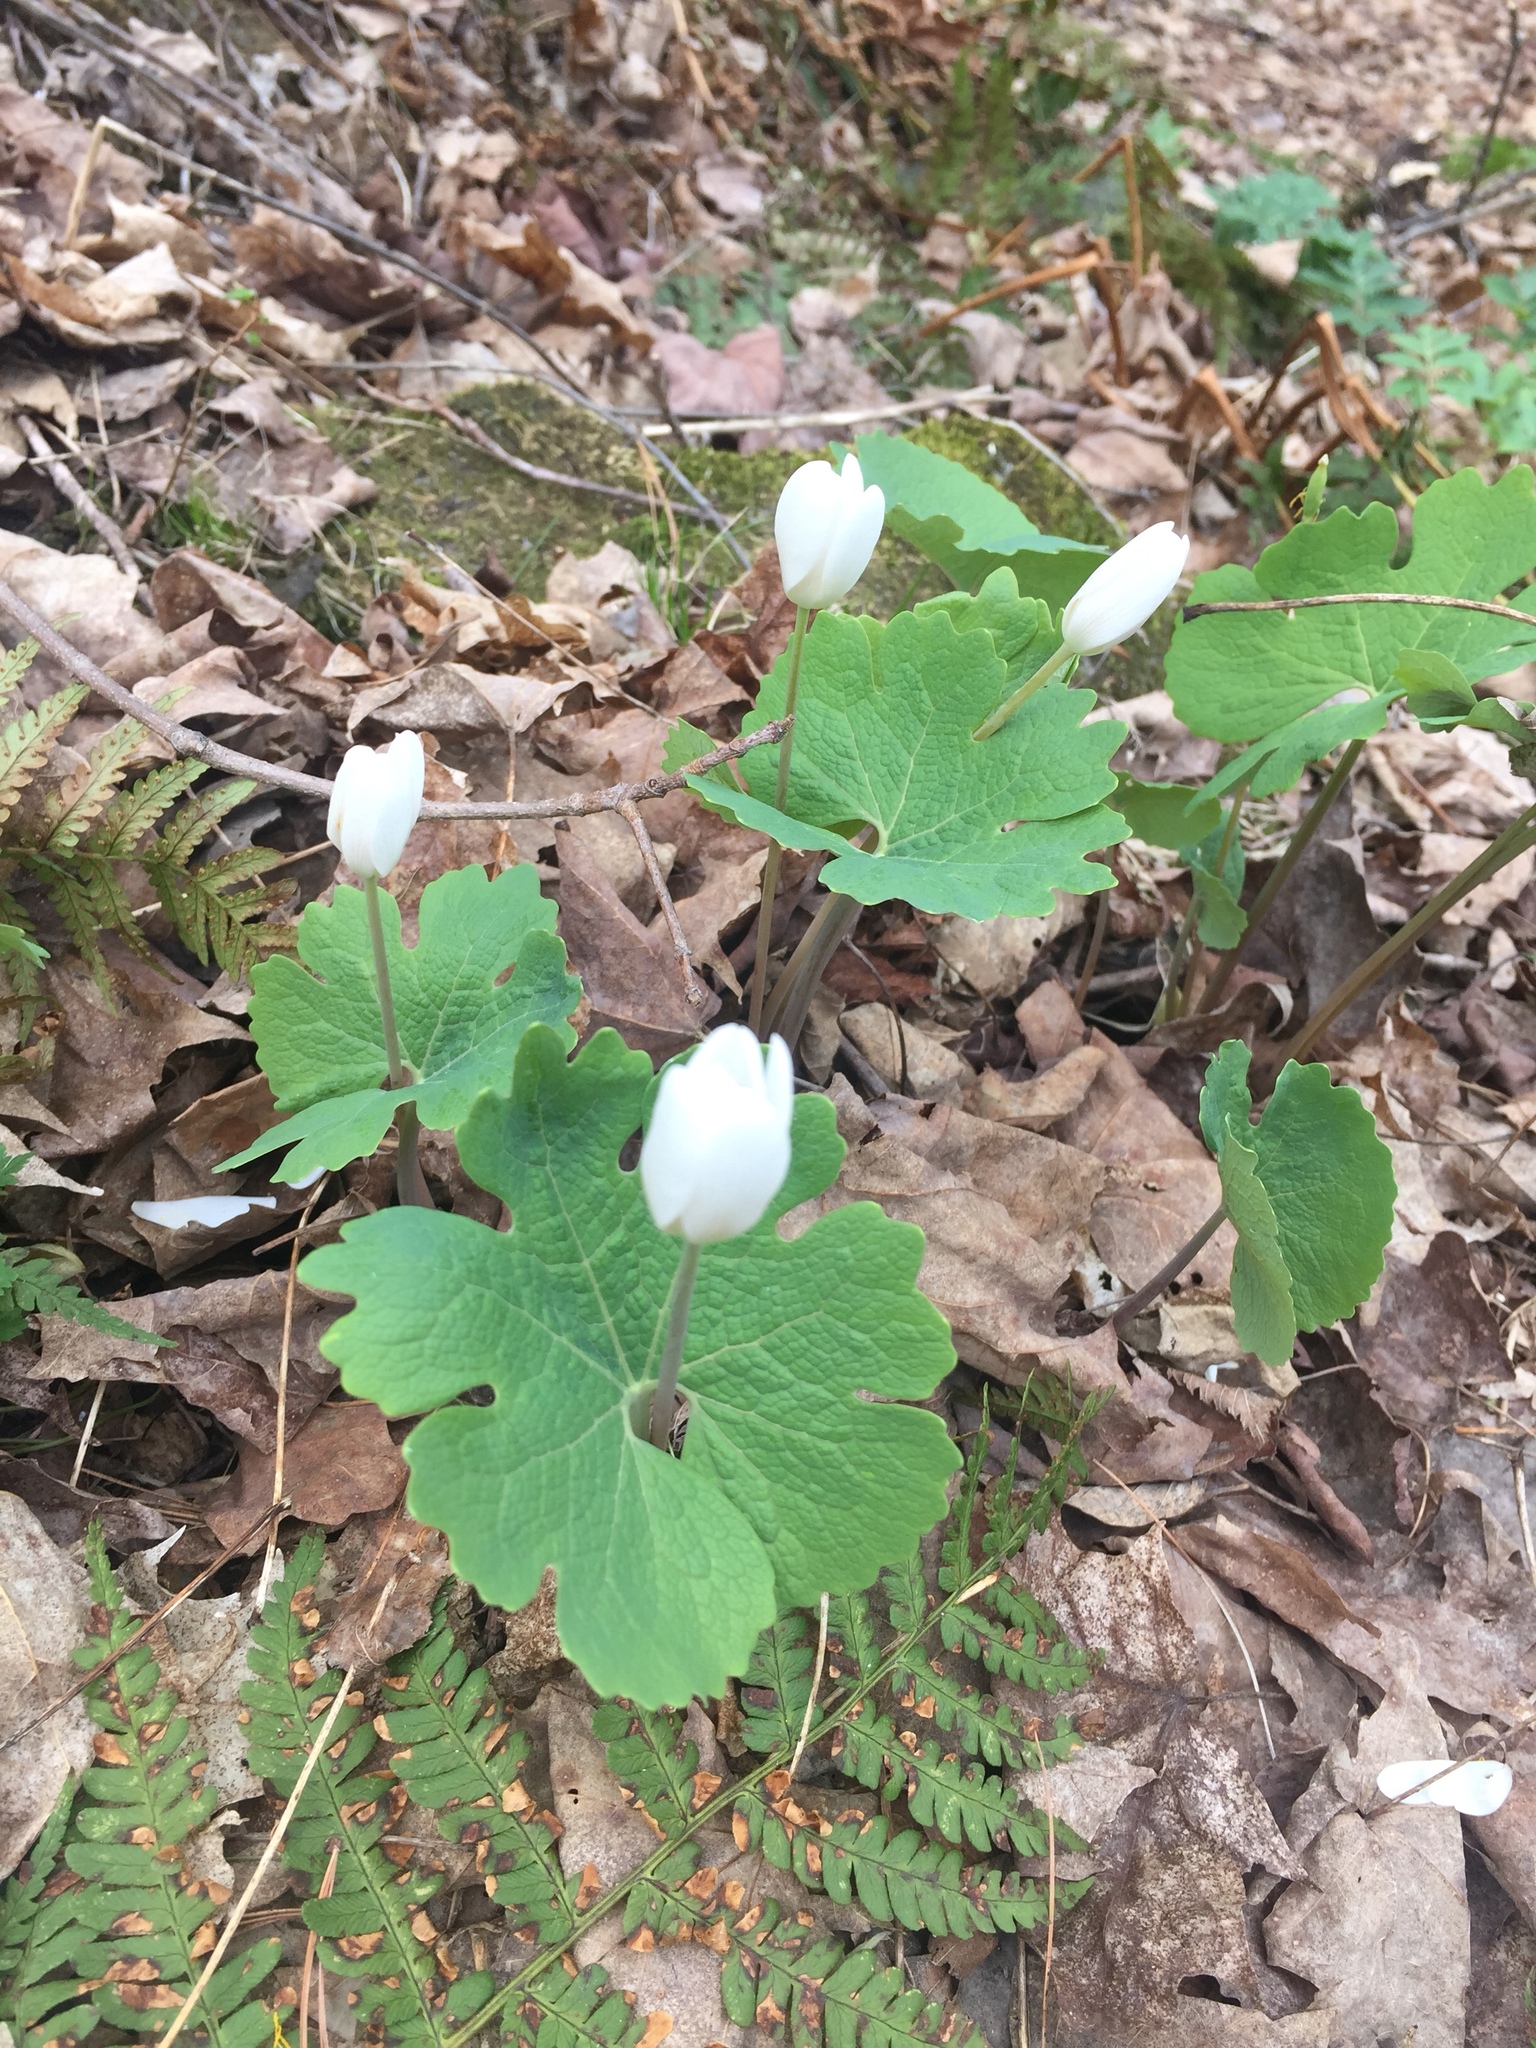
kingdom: Plantae
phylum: Tracheophyta
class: Magnoliopsida
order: Ranunculales
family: Papaveraceae
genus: Sanguinaria
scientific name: Sanguinaria canadensis
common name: Bloodroot
